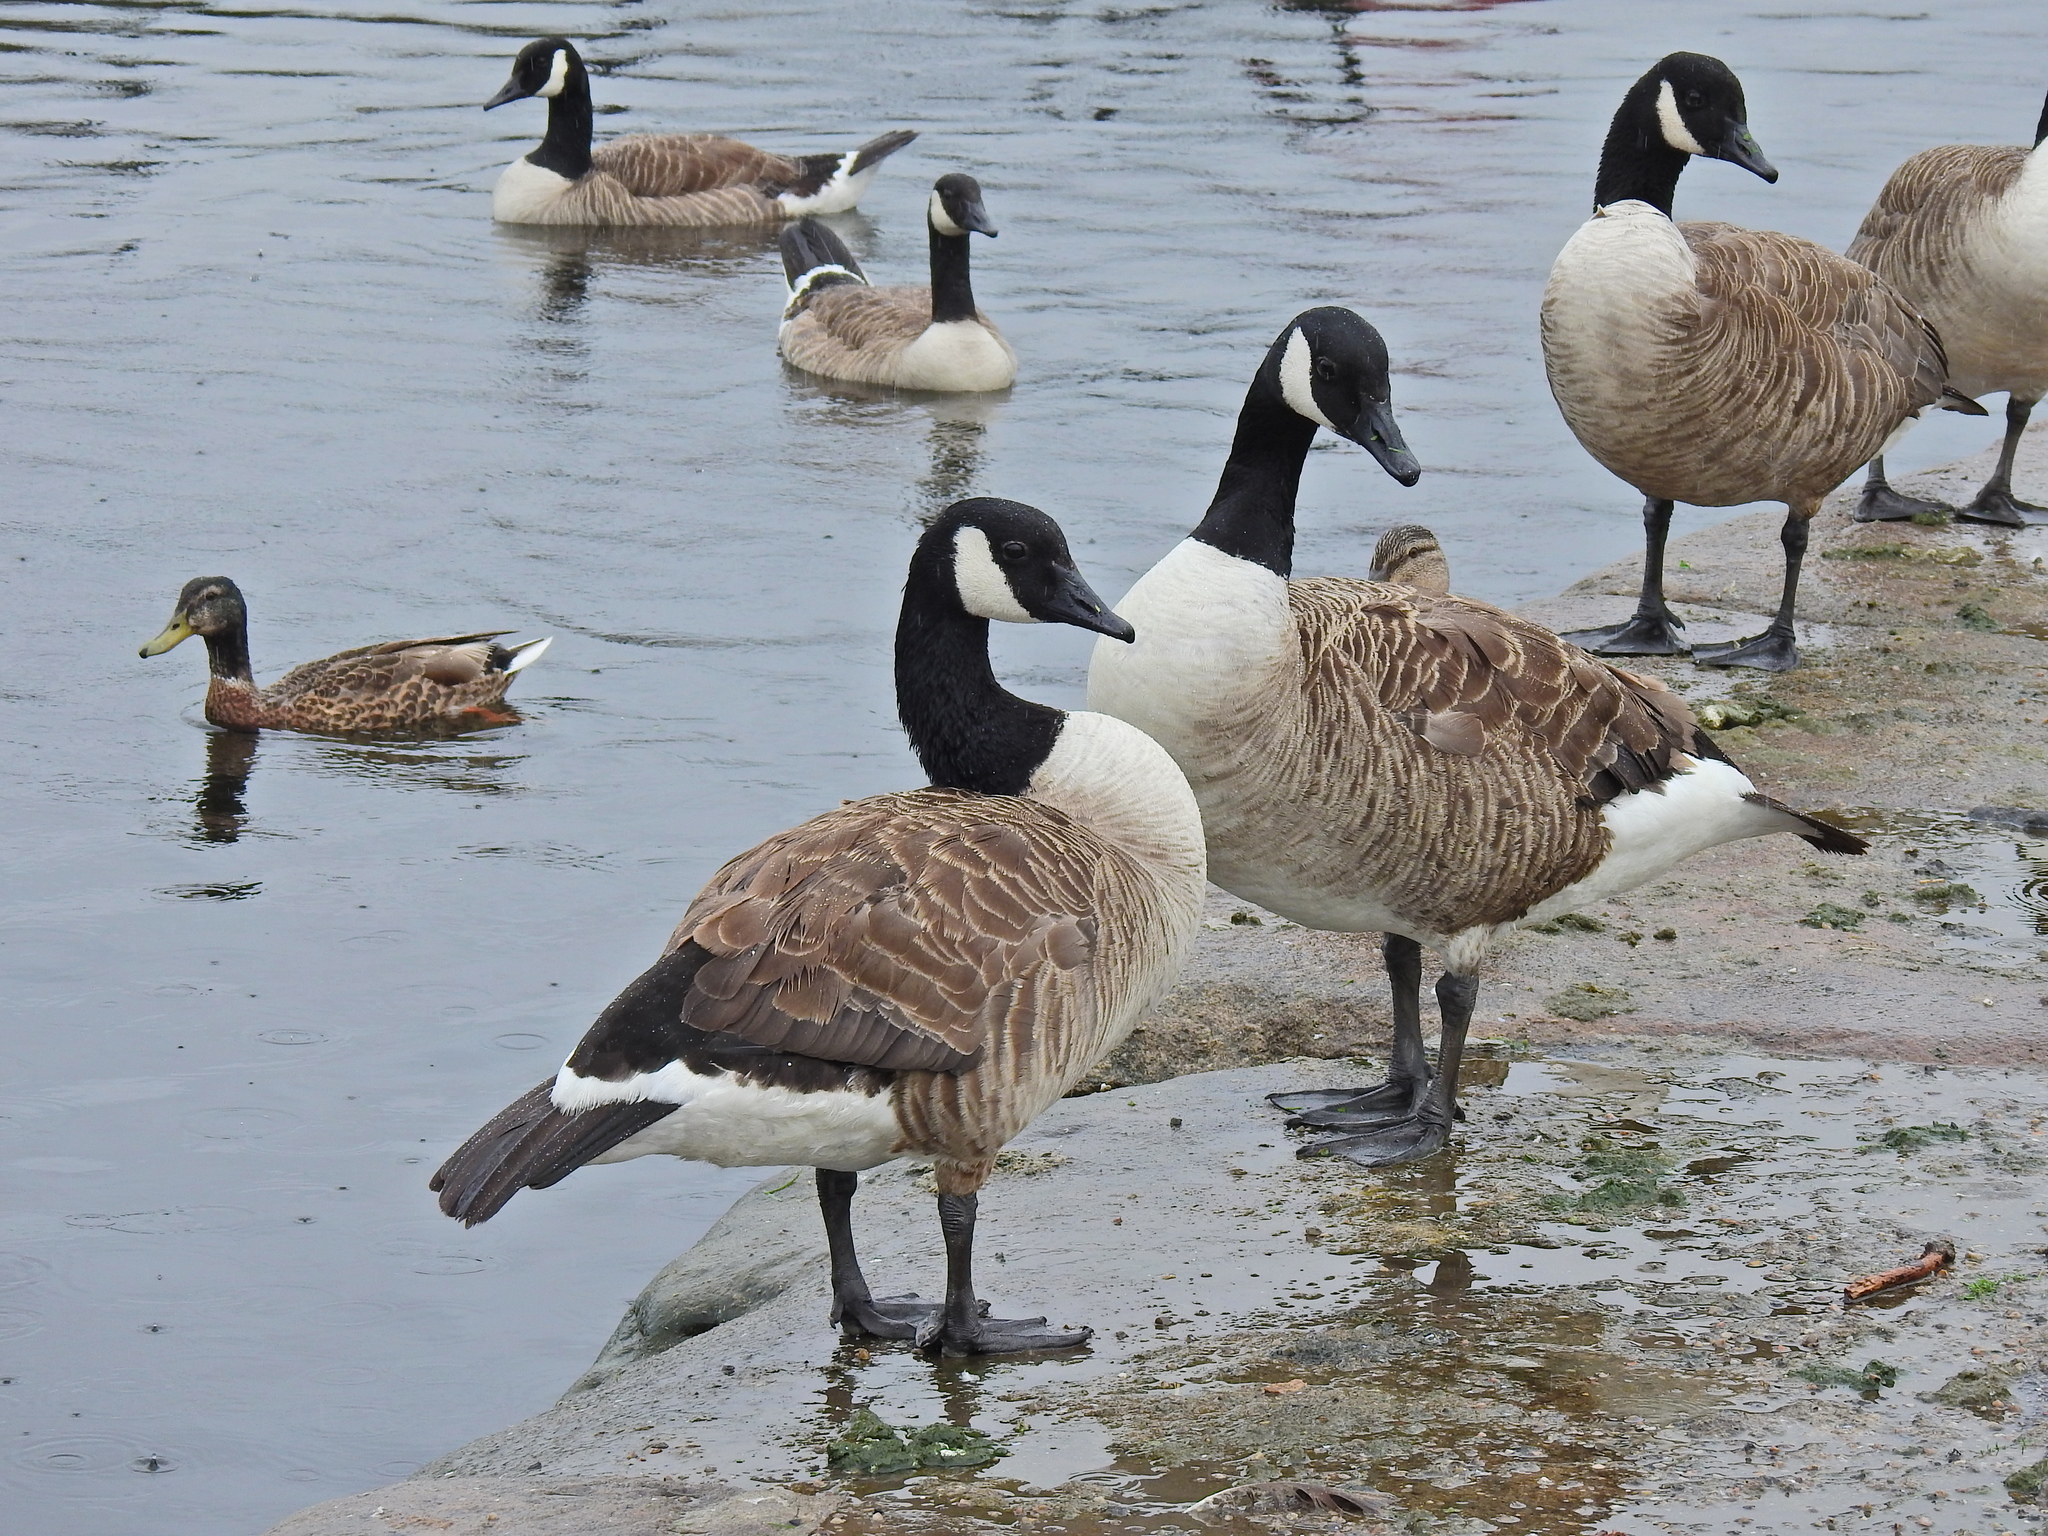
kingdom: Animalia
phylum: Chordata
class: Aves
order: Anseriformes
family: Anatidae
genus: Branta
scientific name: Branta canadensis
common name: Canada goose
